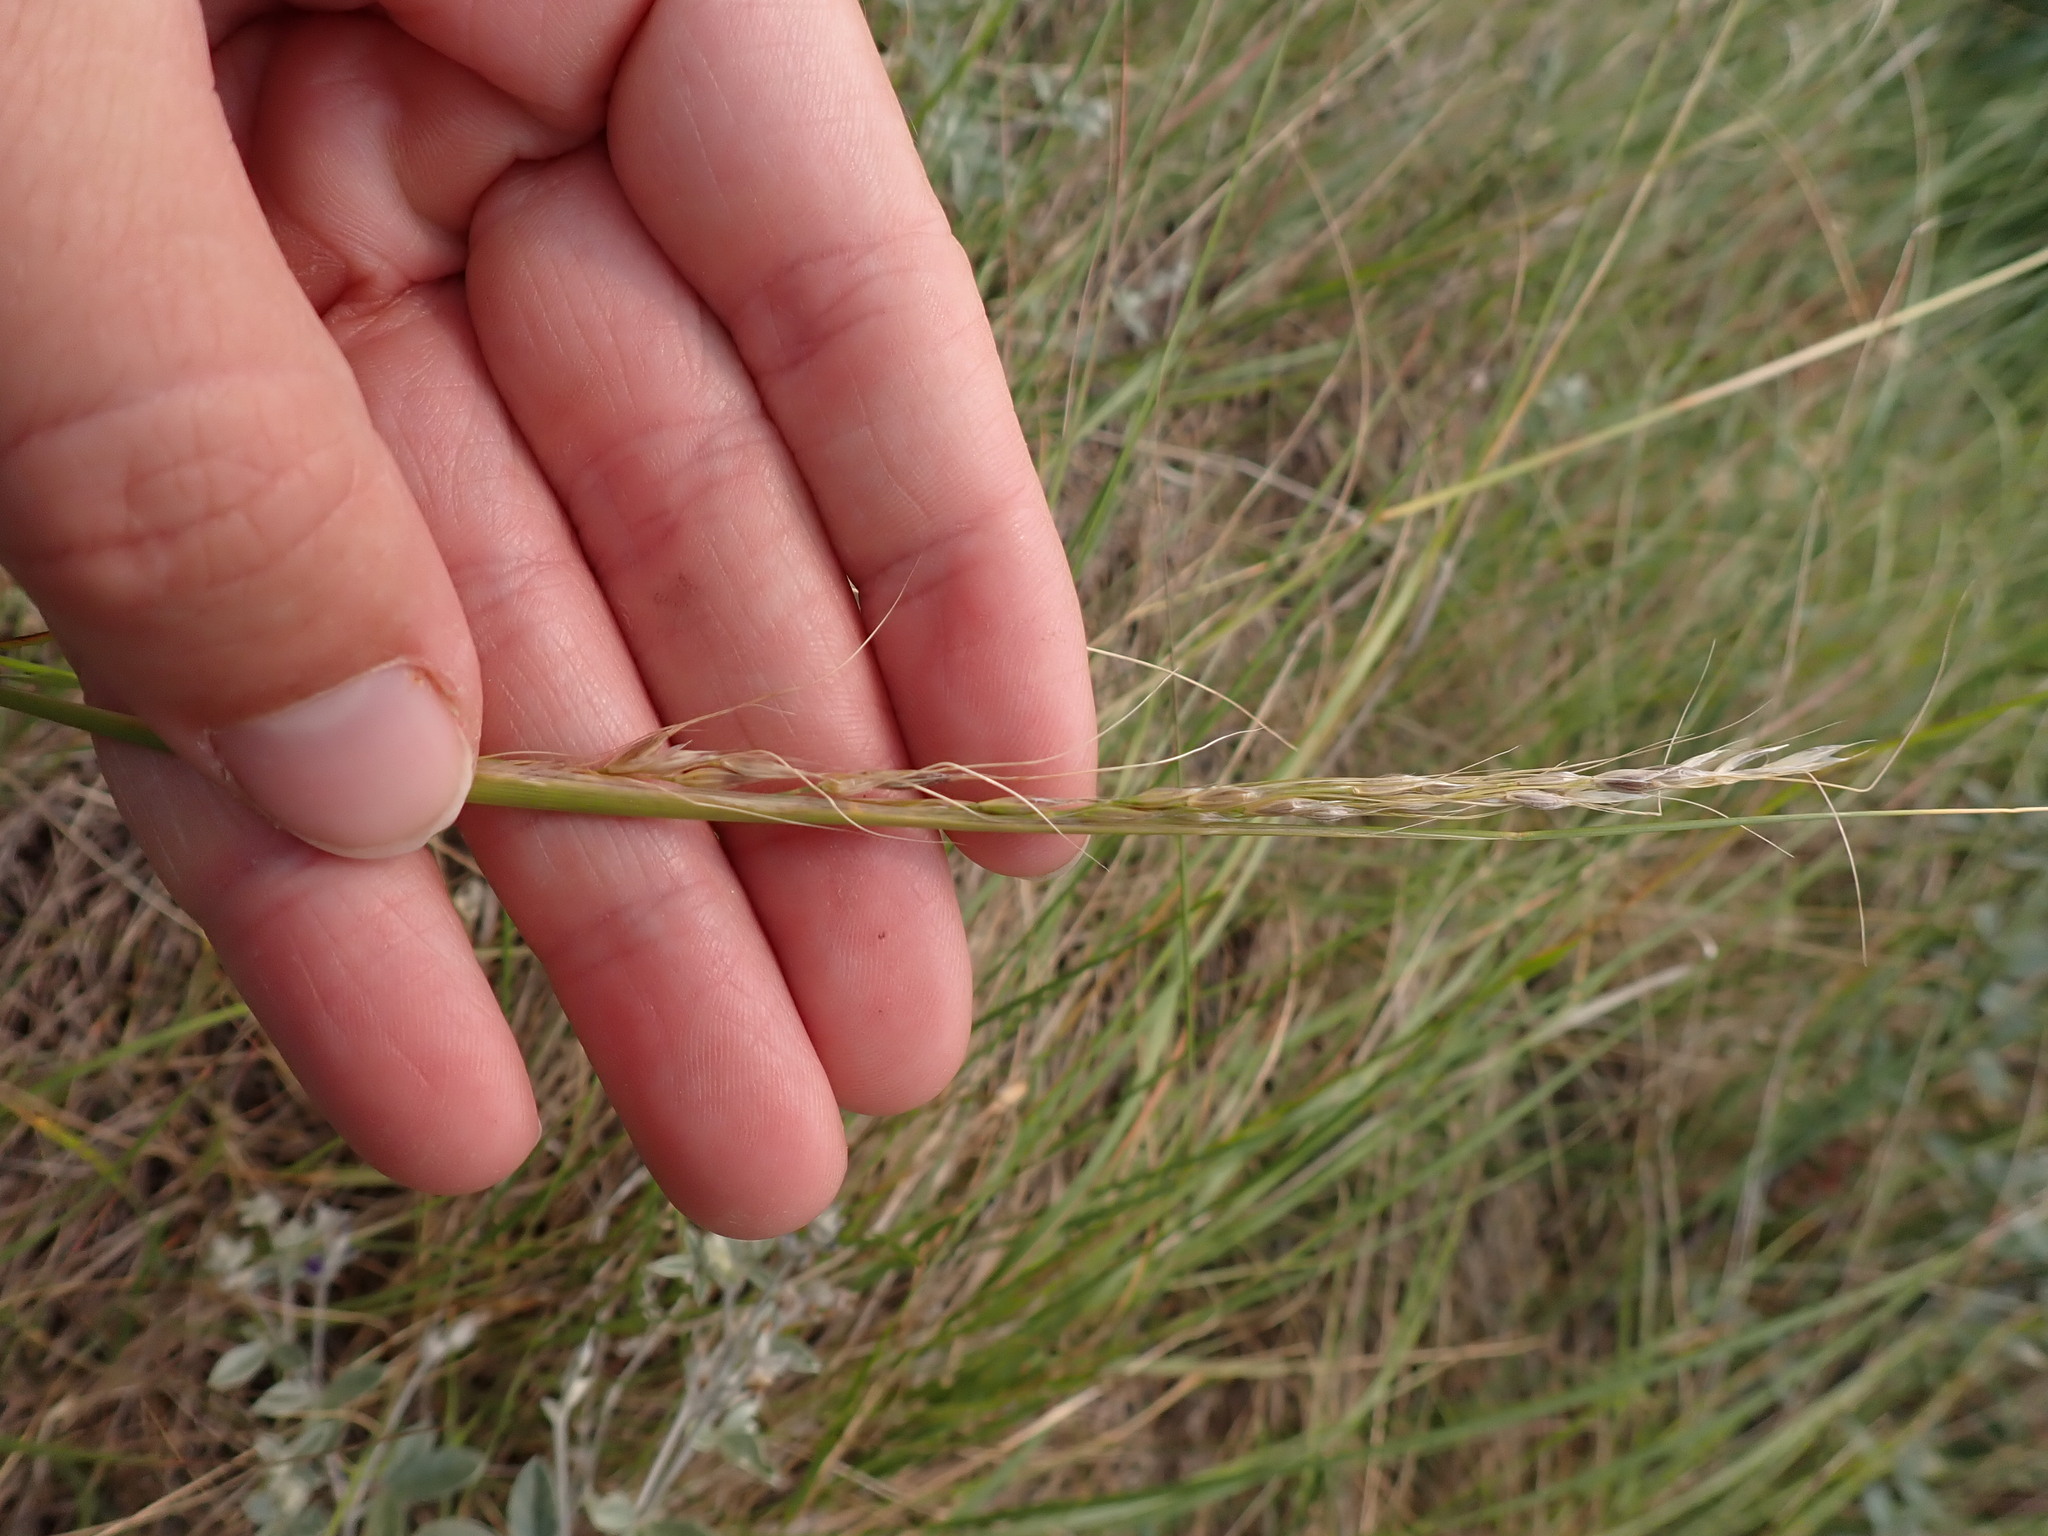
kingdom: Plantae
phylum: Tracheophyta
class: Liliopsida
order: Poales
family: Poaceae
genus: Nassella
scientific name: Nassella viridula
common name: Green needlegrass
